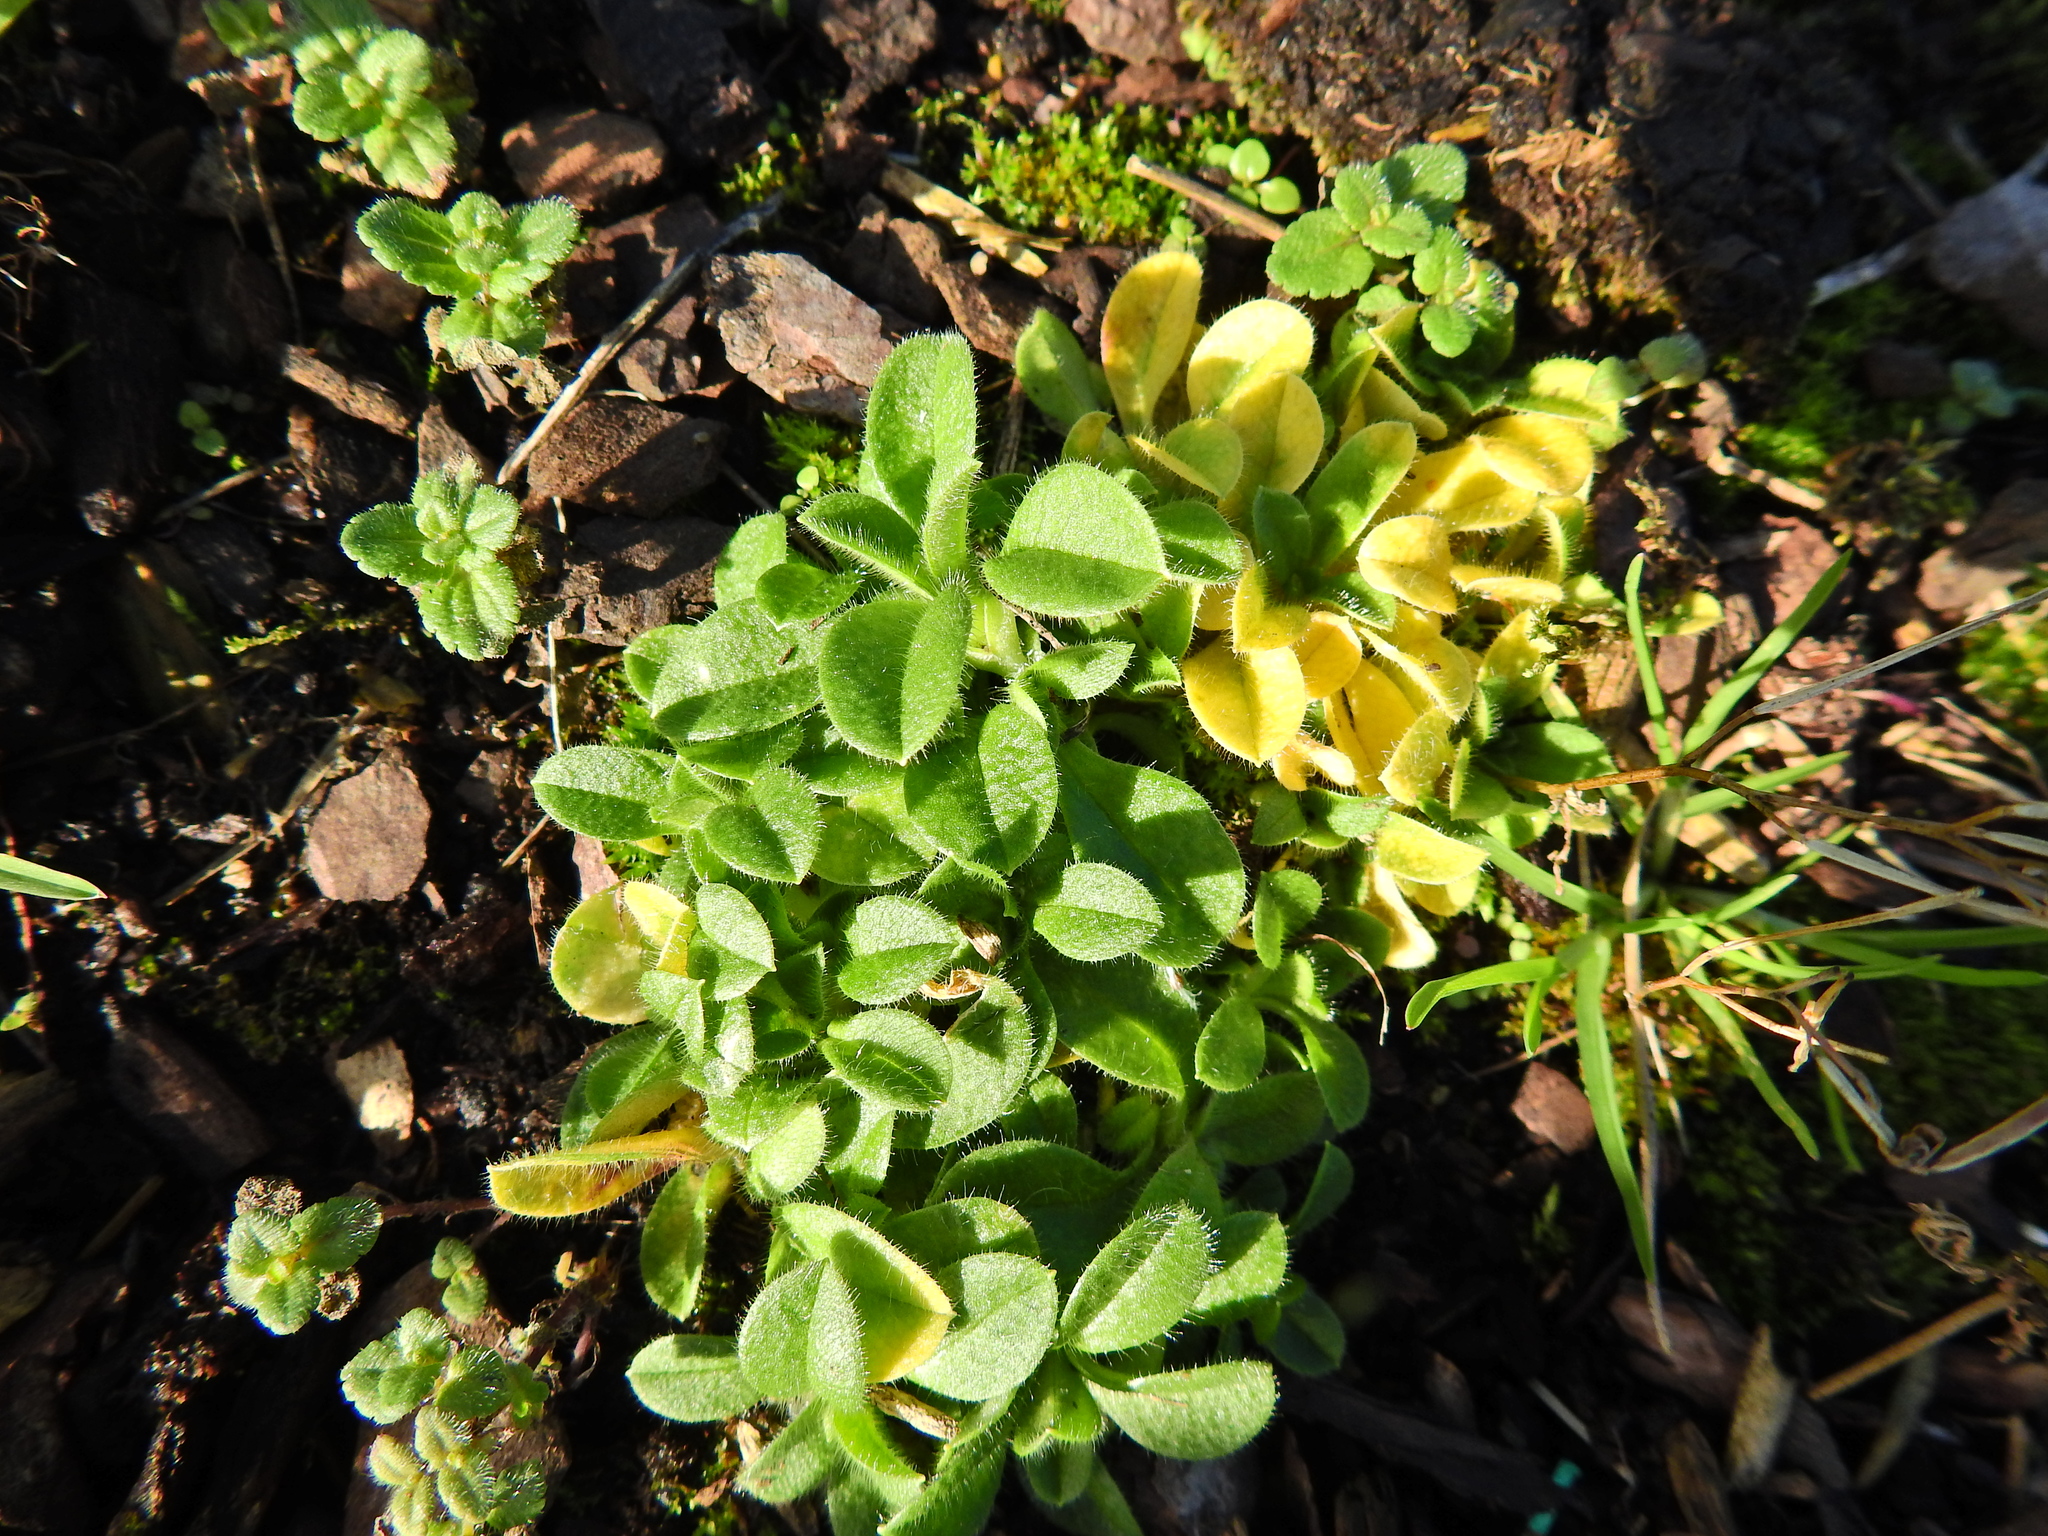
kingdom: Plantae
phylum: Tracheophyta
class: Magnoliopsida
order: Caryophyllales
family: Caryophyllaceae
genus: Cerastium
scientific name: Cerastium glomeratum
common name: Sticky chickweed
